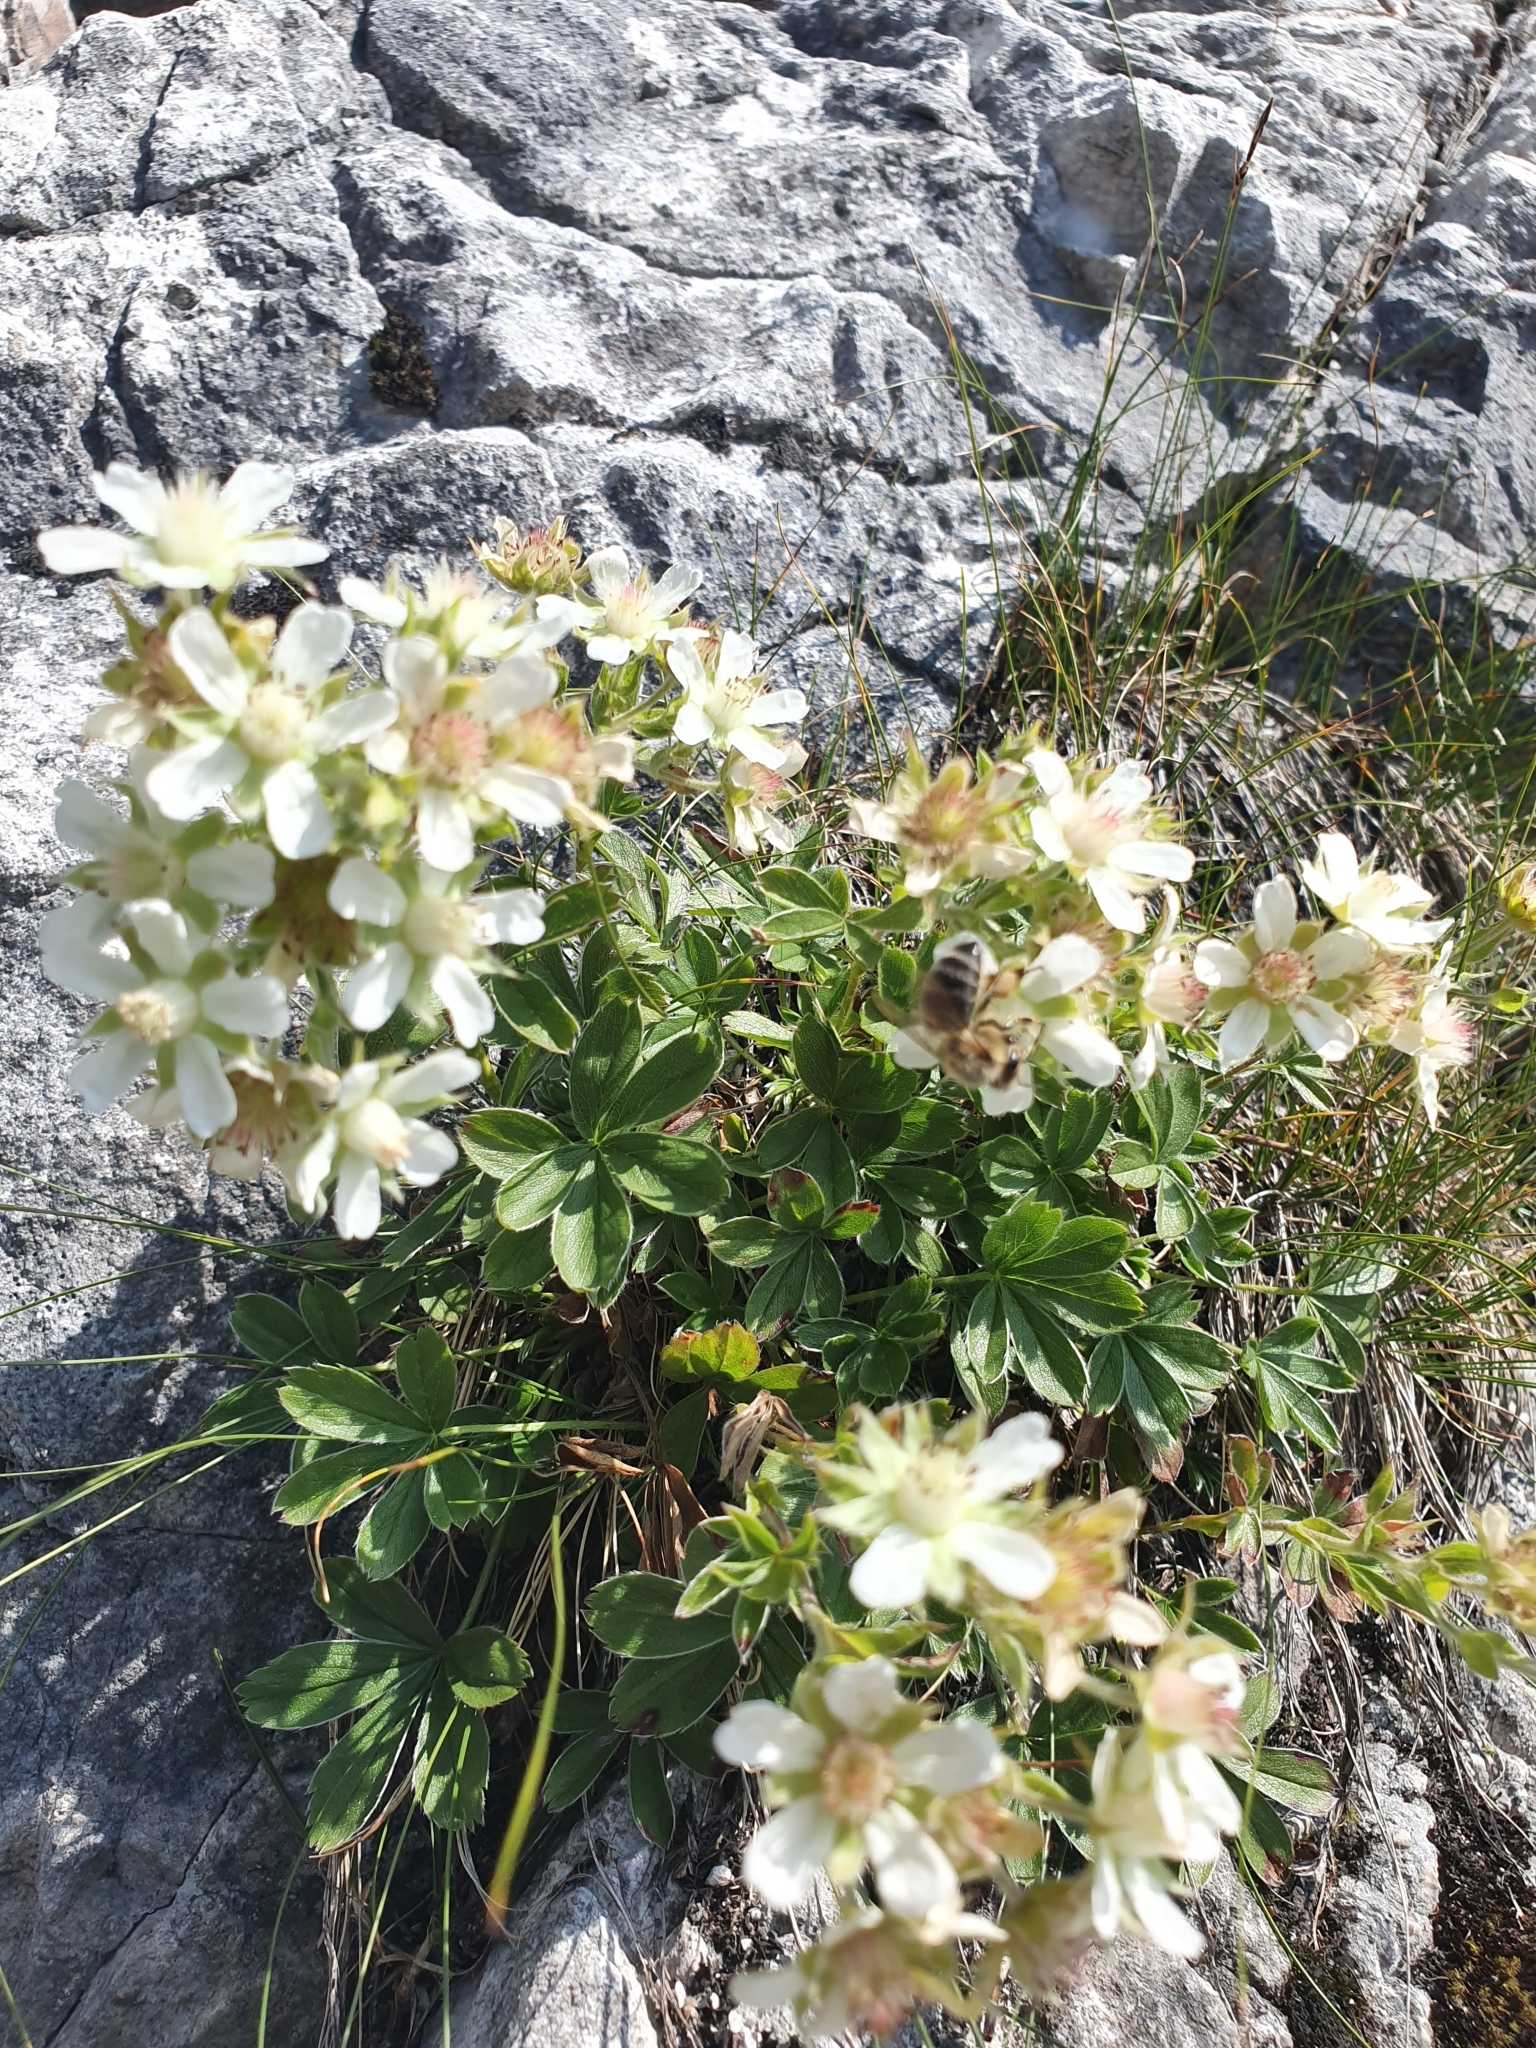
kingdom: Plantae
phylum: Tracheophyta
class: Magnoliopsida
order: Rosales
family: Rosaceae
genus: Potentilla
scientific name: Potentilla caulescens
